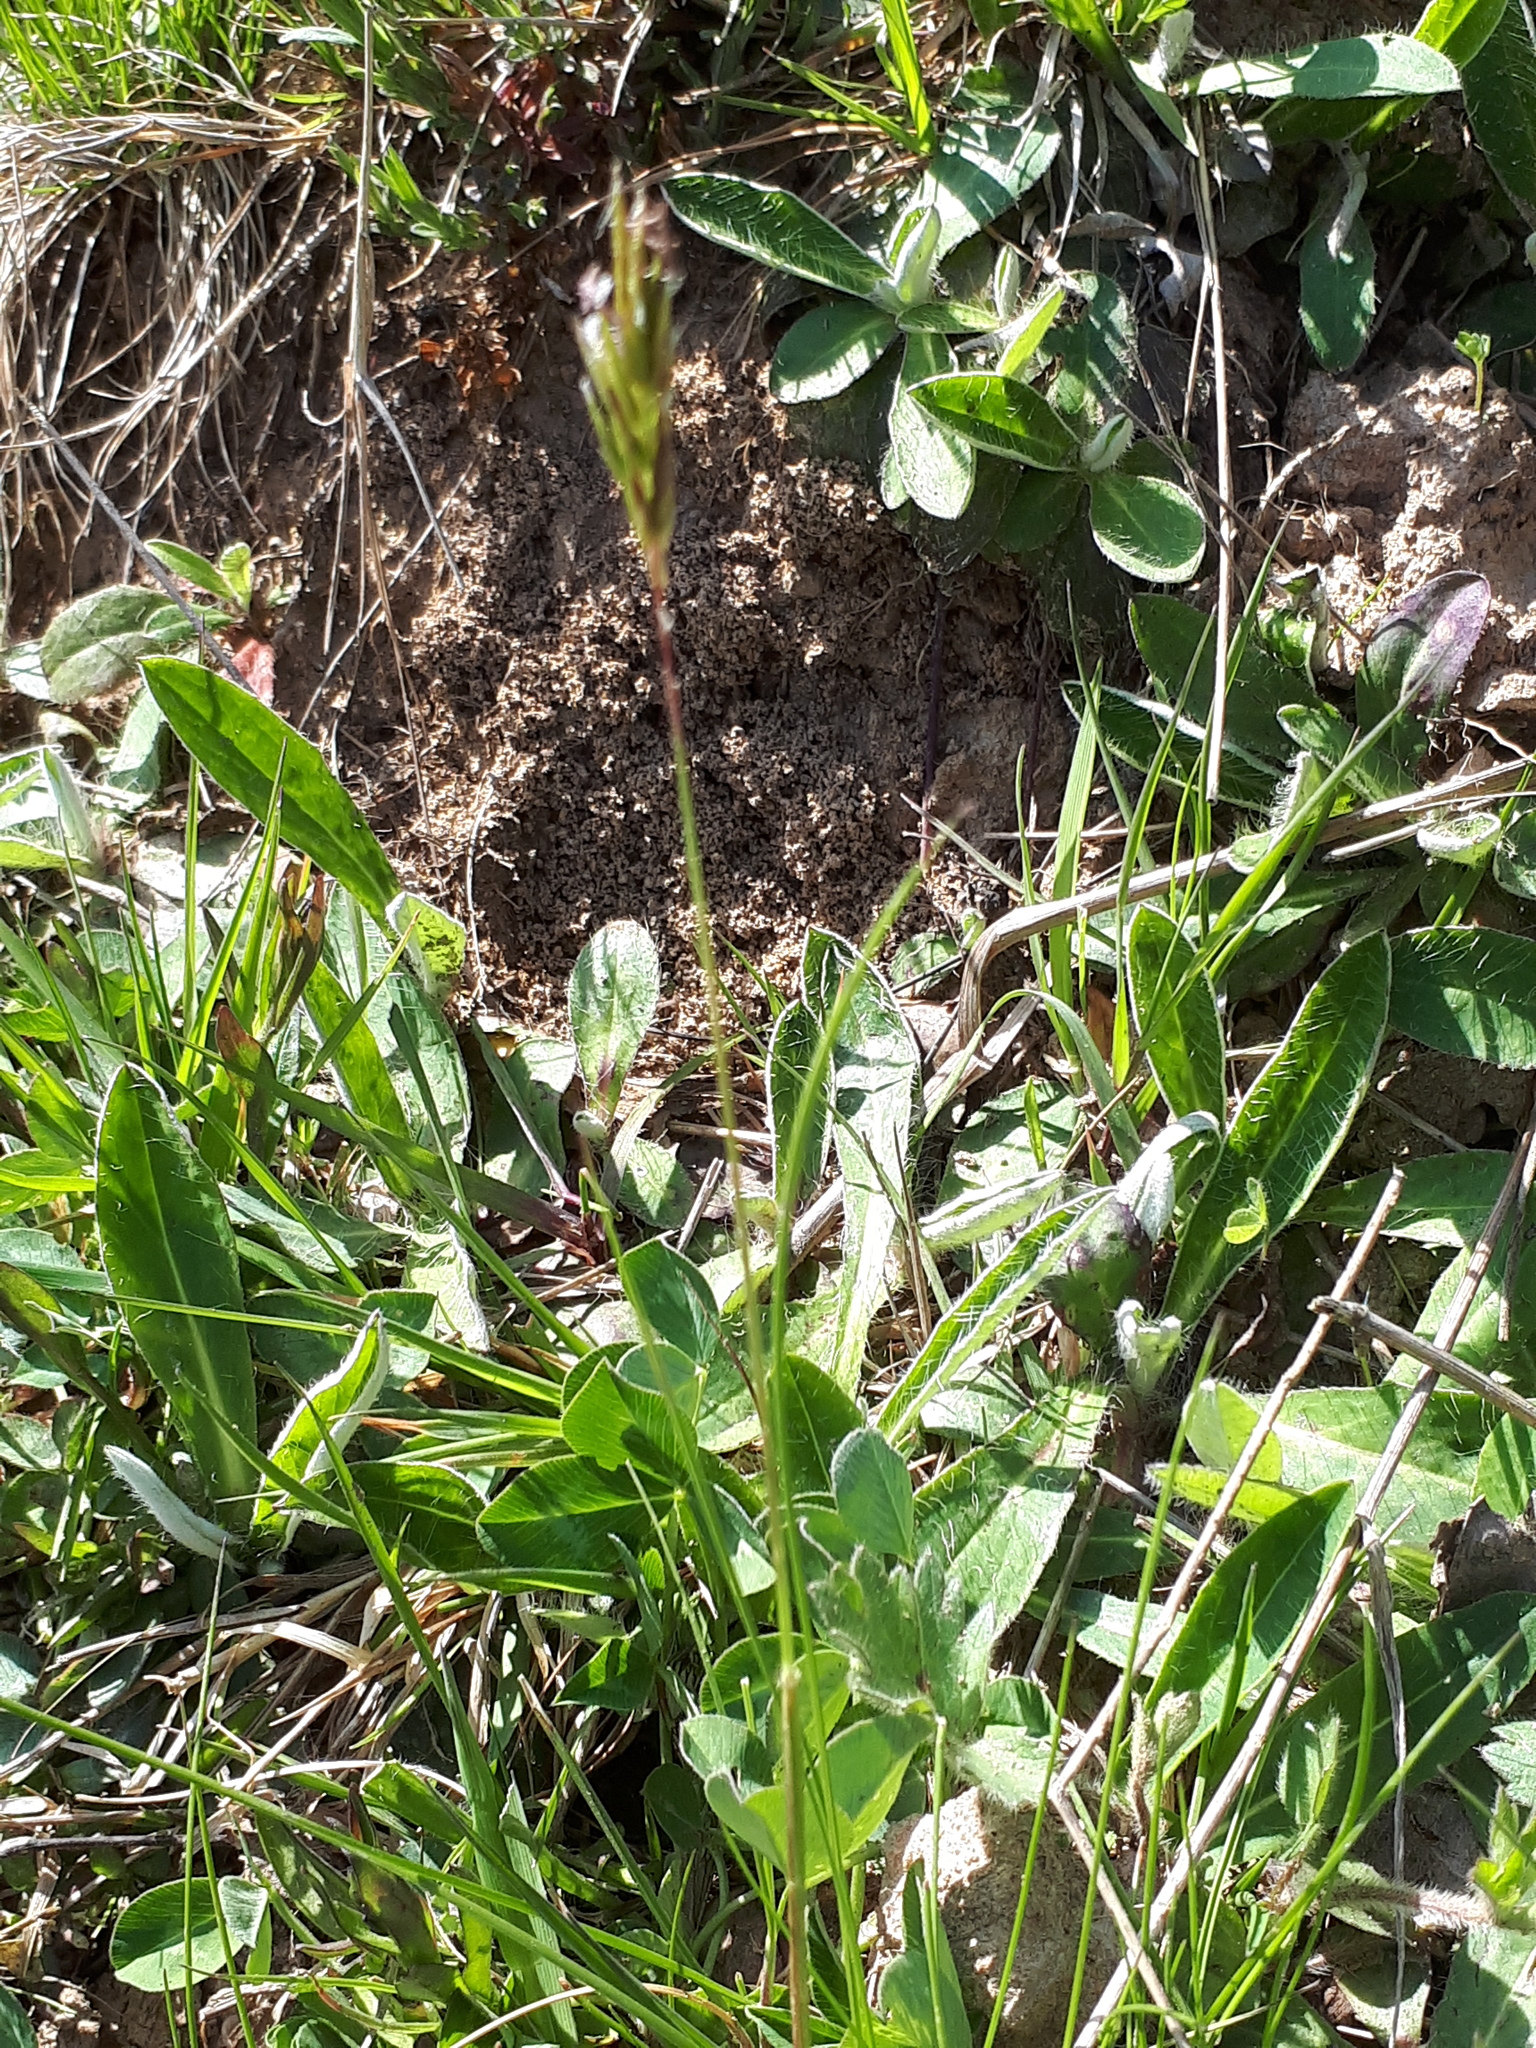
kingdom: Plantae
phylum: Tracheophyta
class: Liliopsida
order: Poales
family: Poaceae
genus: Anthoxanthum
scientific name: Anthoxanthum odoratum
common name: Sweet vernalgrass
